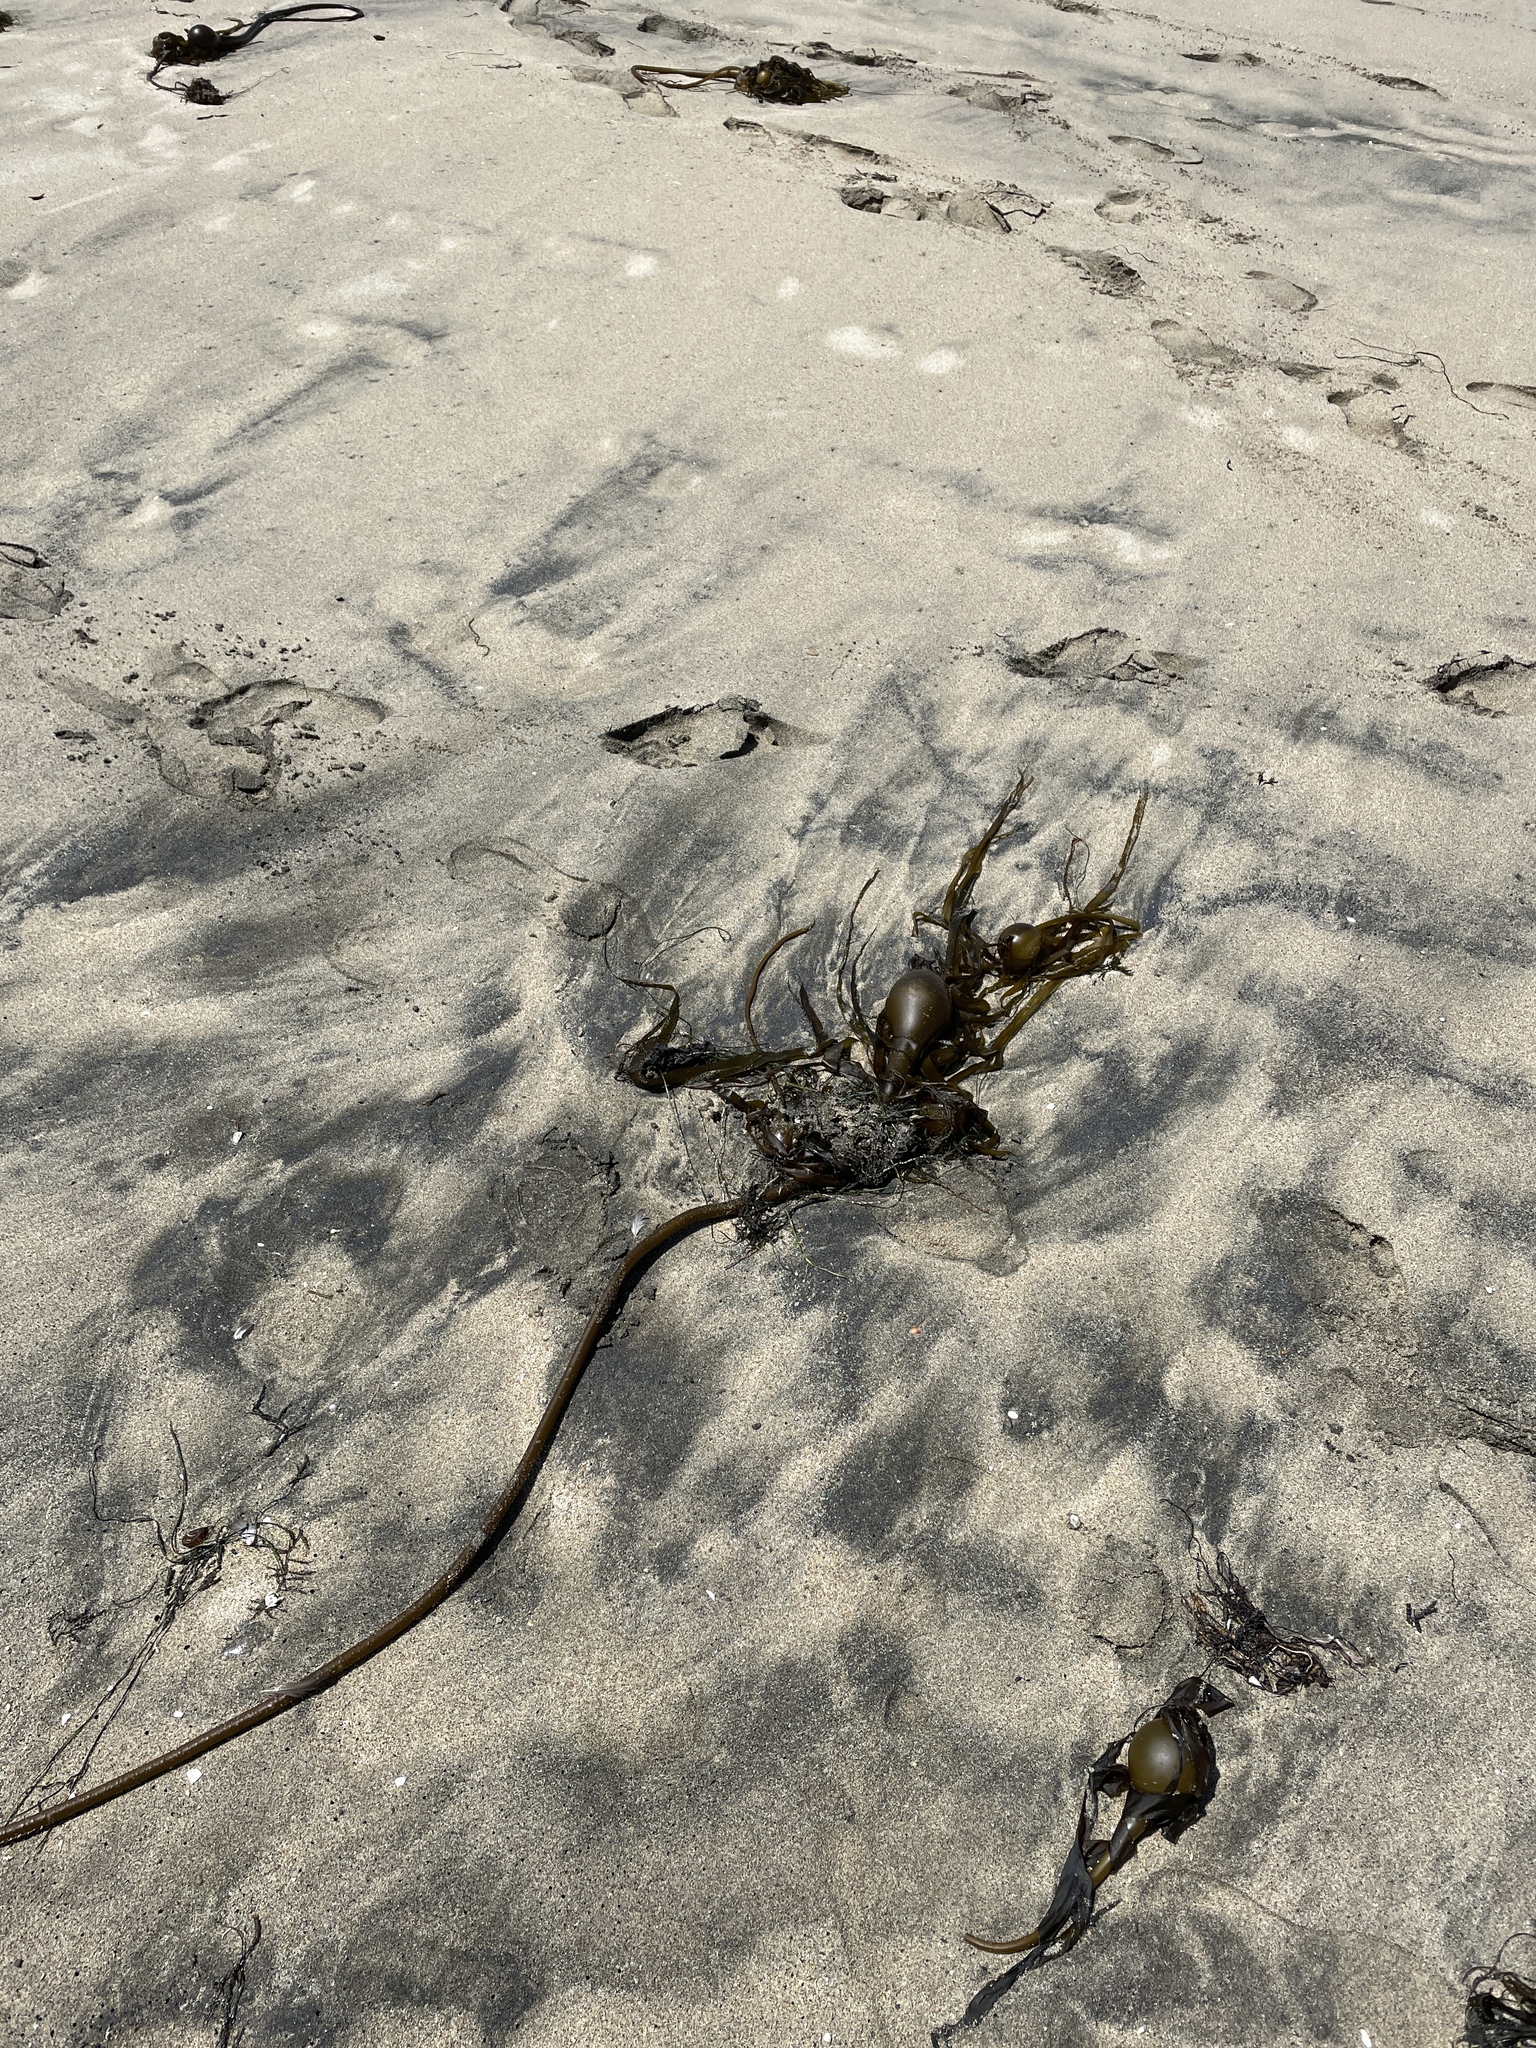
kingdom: Chromista
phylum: Ochrophyta
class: Phaeophyceae
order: Laminariales
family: Laminariaceae
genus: Nereocystis
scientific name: Nereocystis luetkeana
